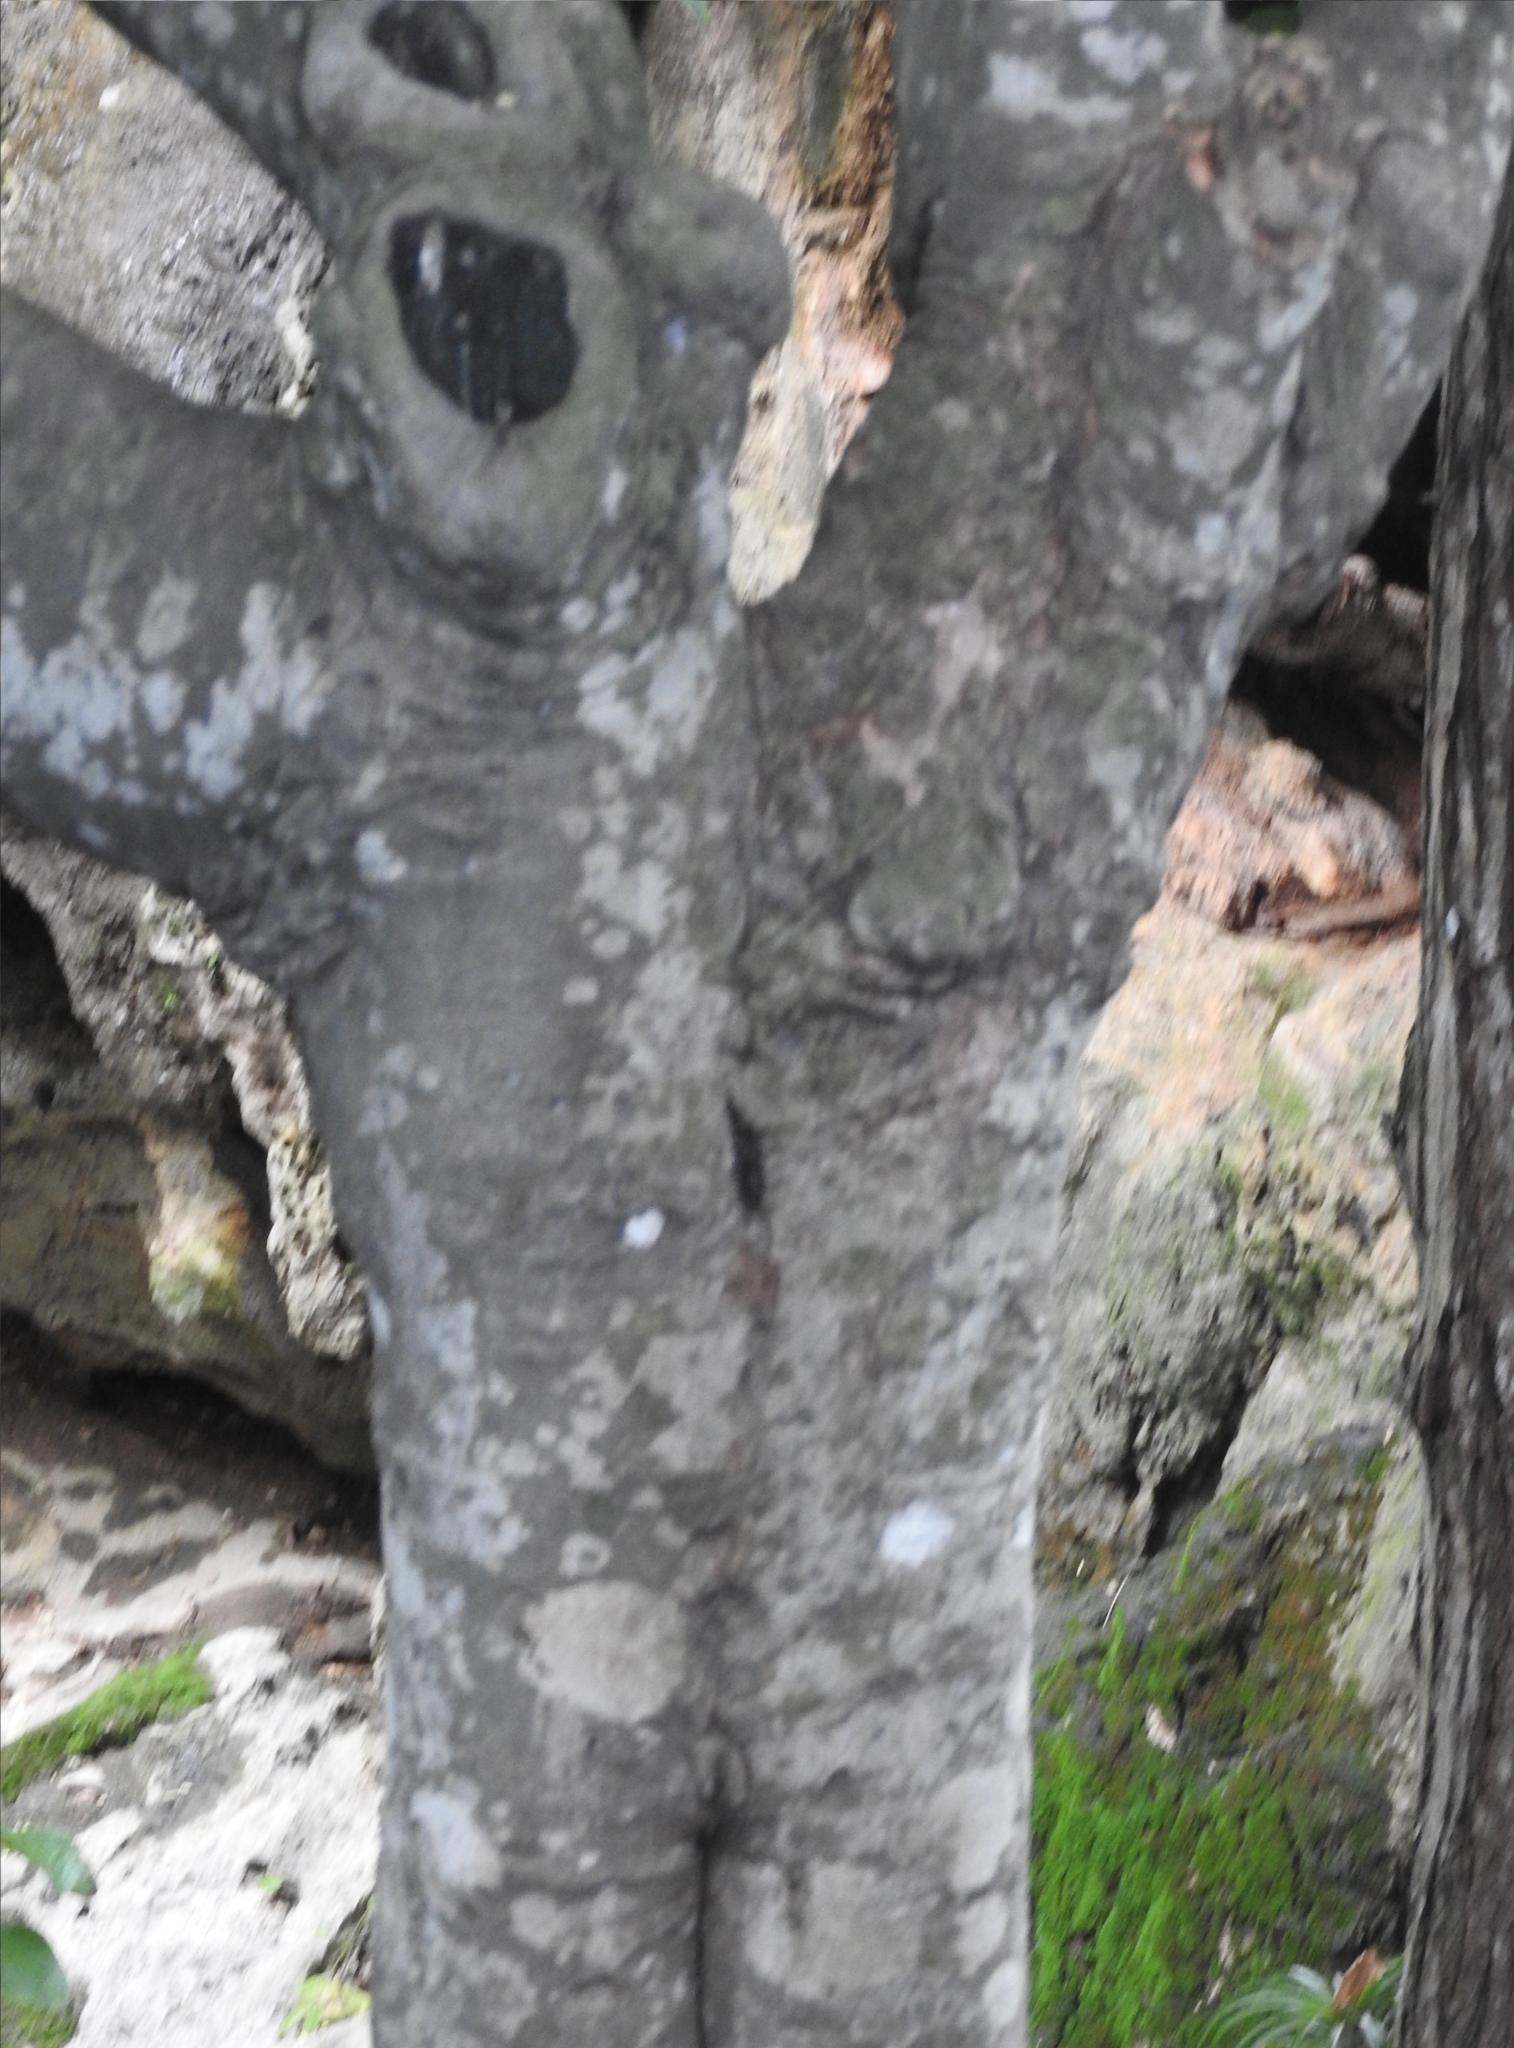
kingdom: Plantae
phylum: Tracheophyta
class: Magnoliopsida
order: Rosales
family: Moraceae
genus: Brosimum
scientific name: Brosimum alicastrum
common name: Breadnut
